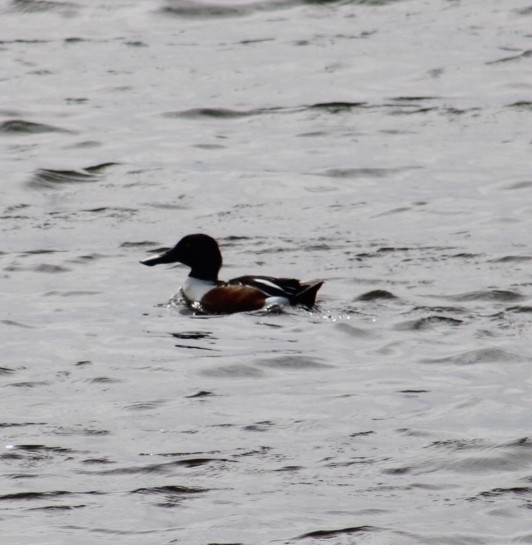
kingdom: Animalia
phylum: Chordata
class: Aves
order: Anseriformes
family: Anatidae
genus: Spatula
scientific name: Spatula clypeata
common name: Northern shoveler
